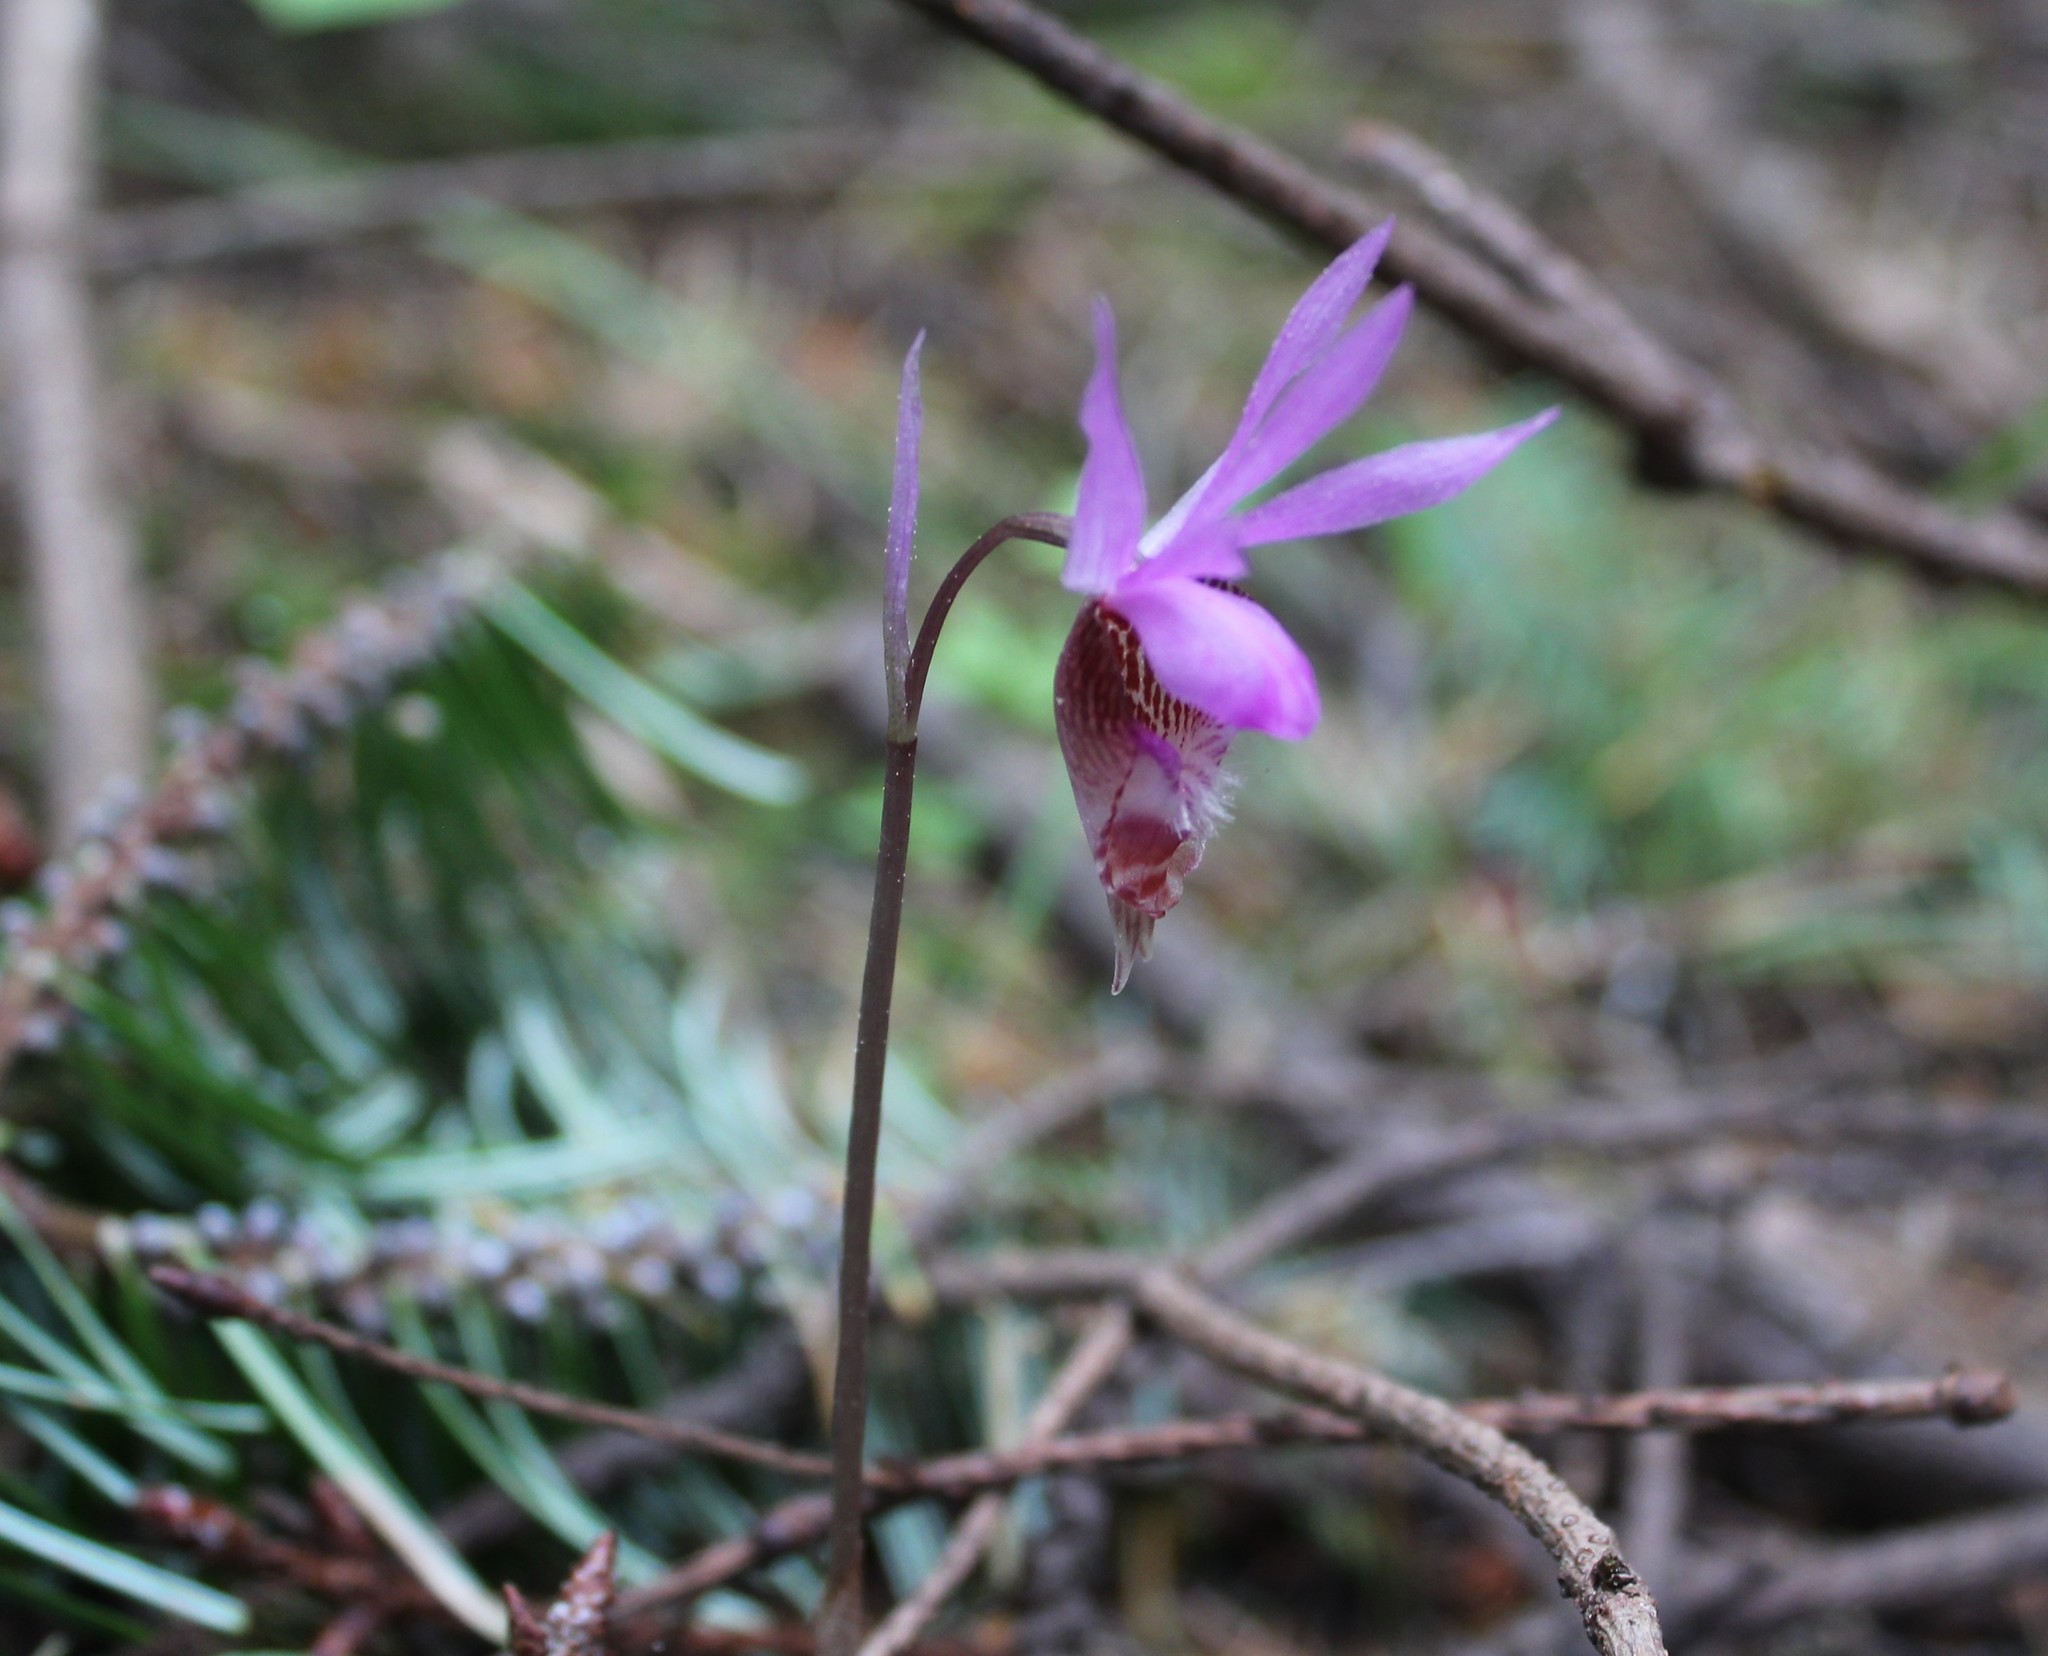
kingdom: Plantae
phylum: Tracheophyta
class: Liliopsida
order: Asparagales
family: Orchidaceae
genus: Calypso
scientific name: Calypso bulbosa
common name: Calypso
